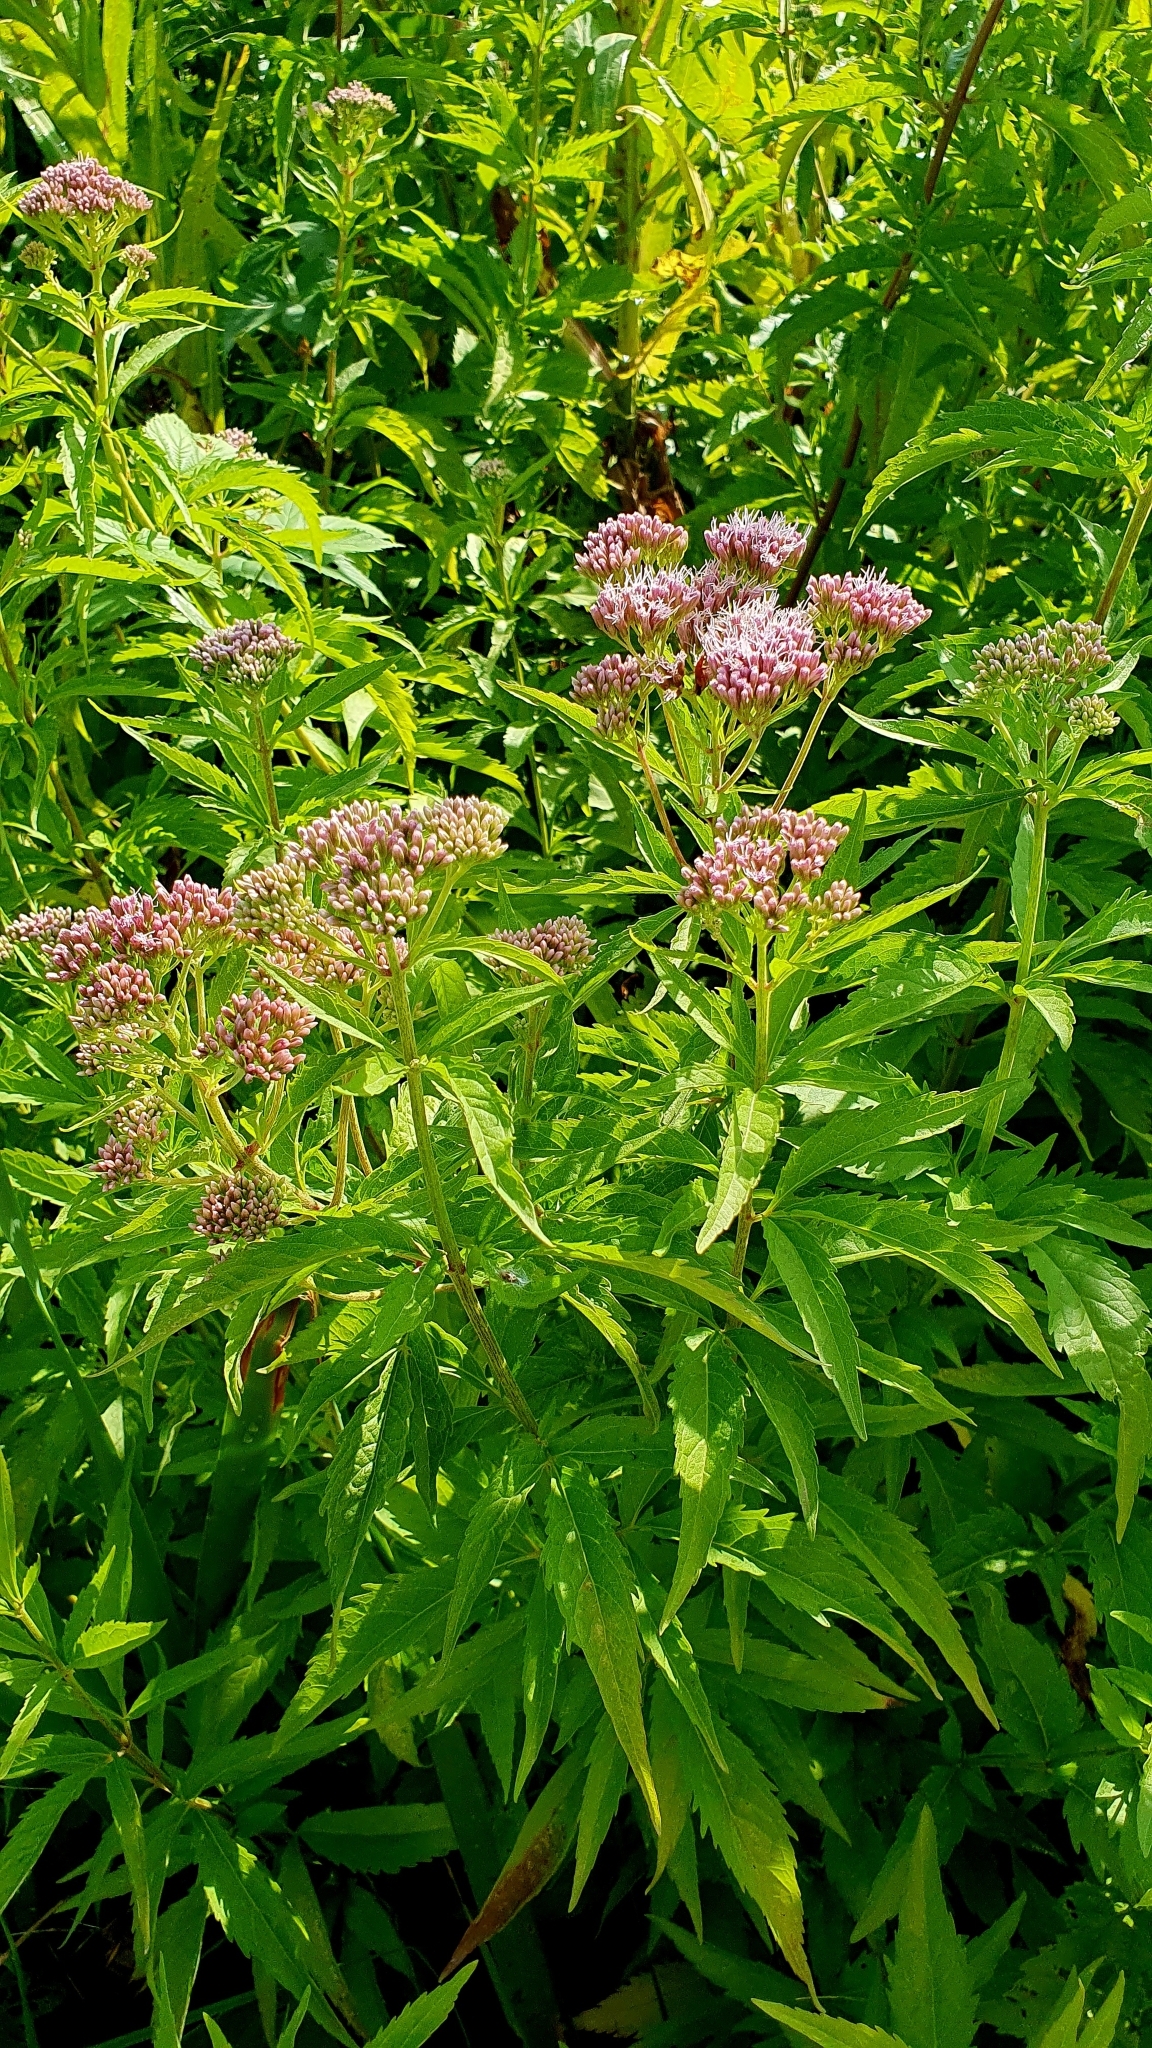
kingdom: Plantae
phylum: Tracheophyta
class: Magnoliopsida
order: Asterales
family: Asteraceae
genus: Eupatorium
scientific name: Eupatorium cannabinum
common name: Hemp-agrimony
